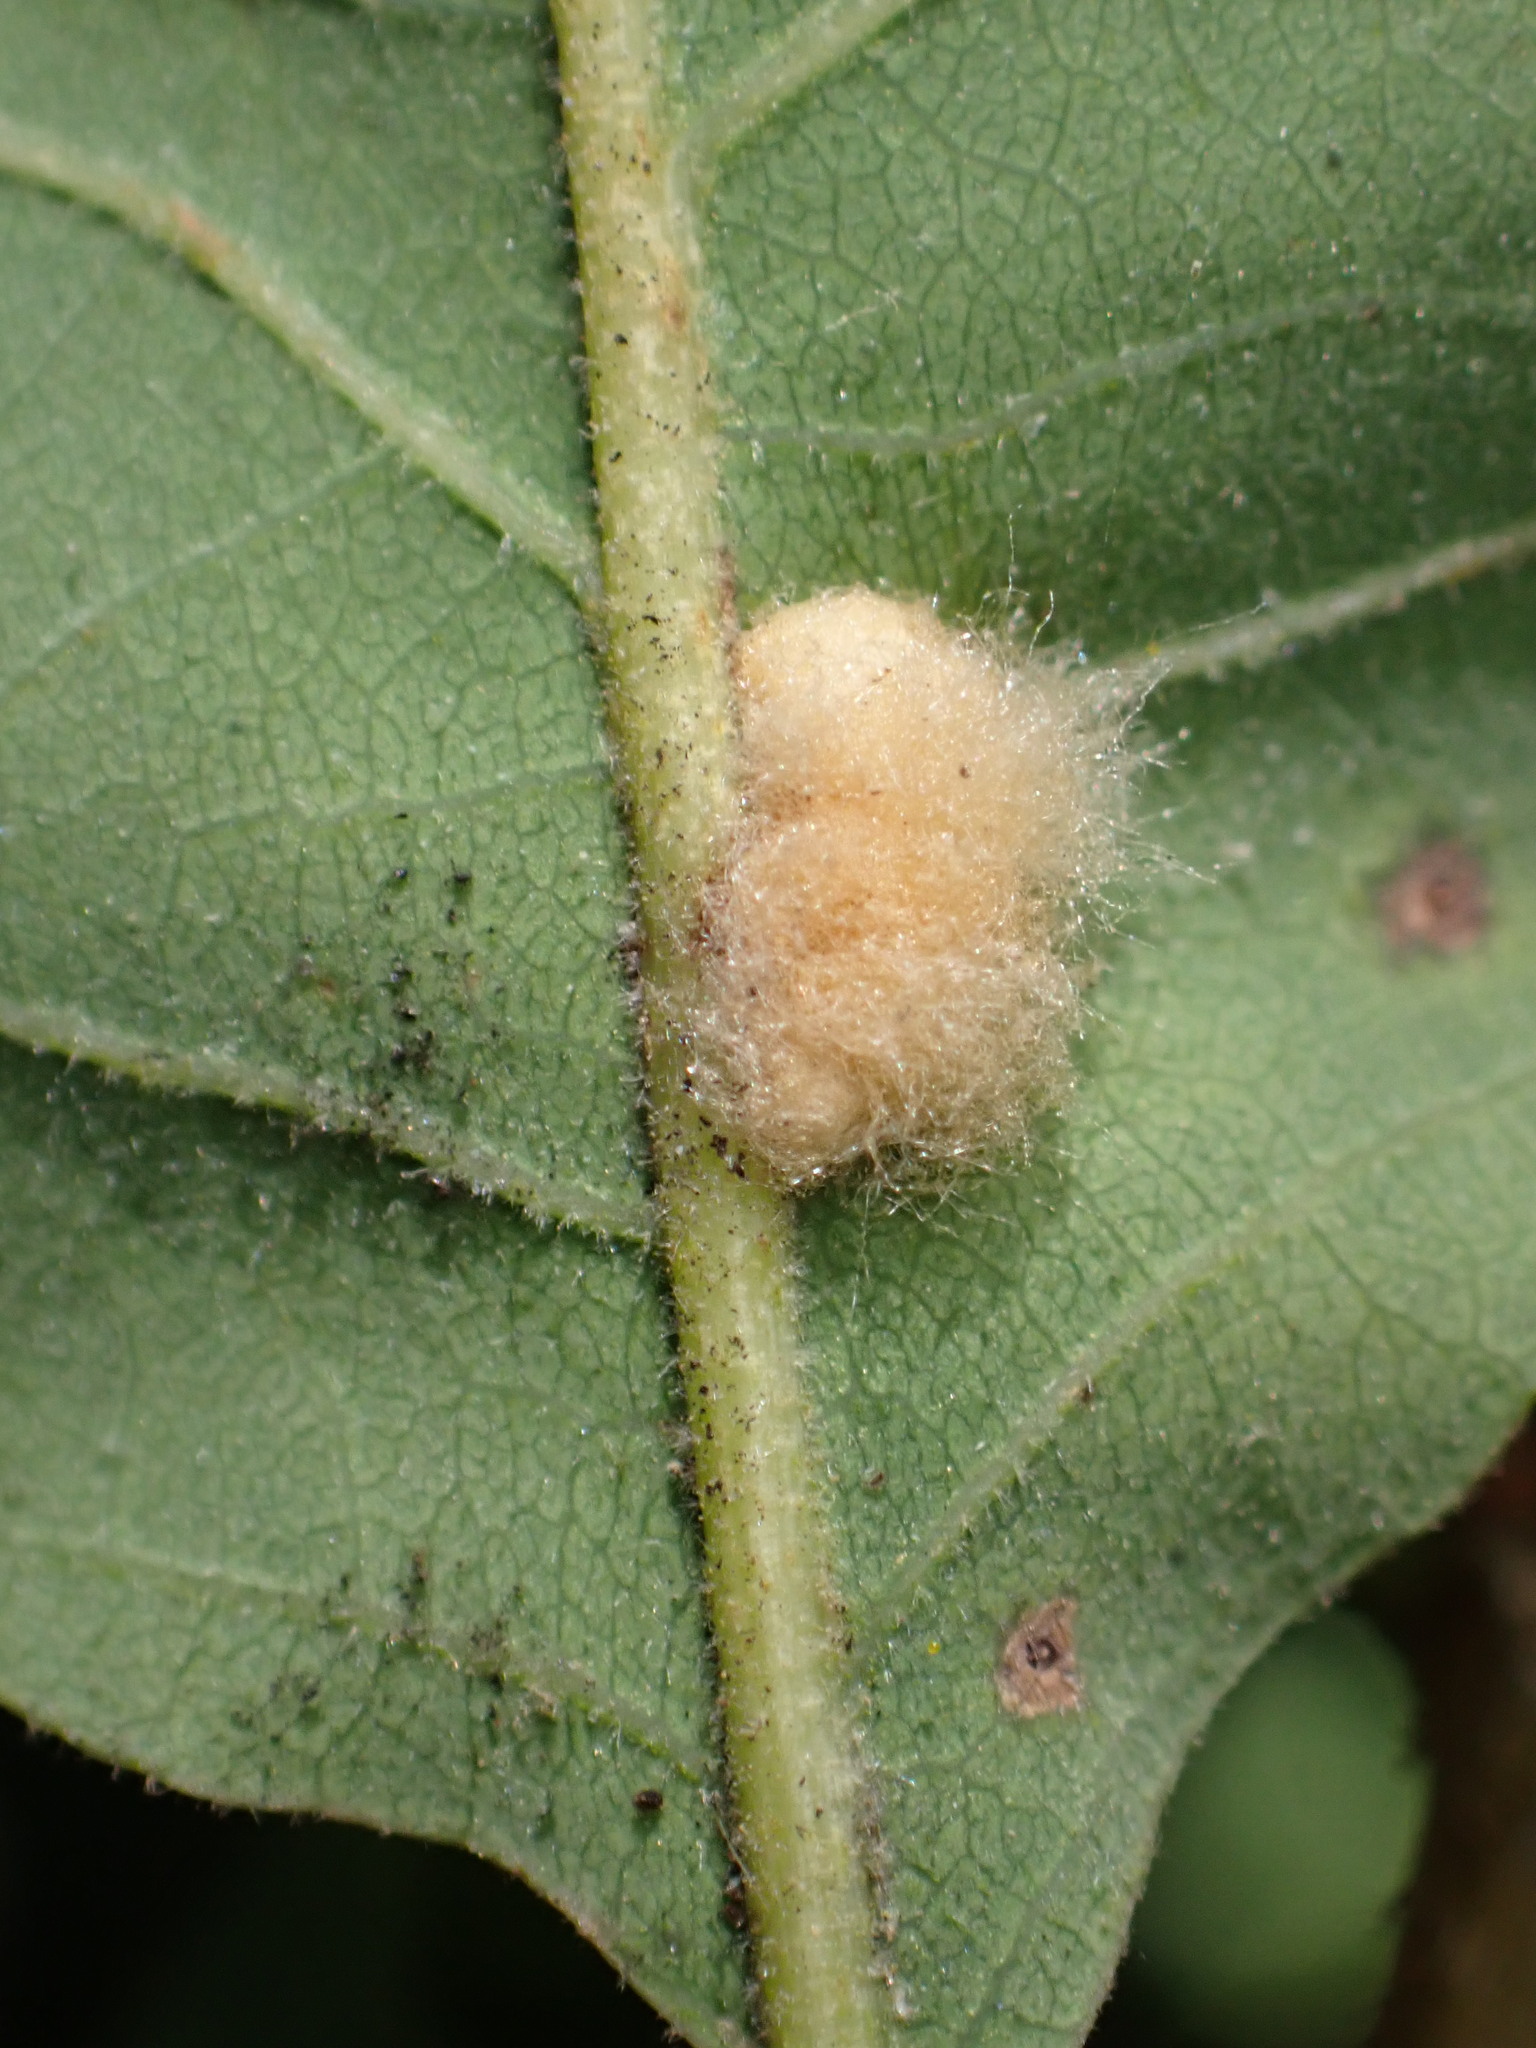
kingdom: Animalia
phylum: Arthropoda
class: Insecta
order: Hymenoptera
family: Cynipidae
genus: Andricus
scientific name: Andricus Druon fullawayi
